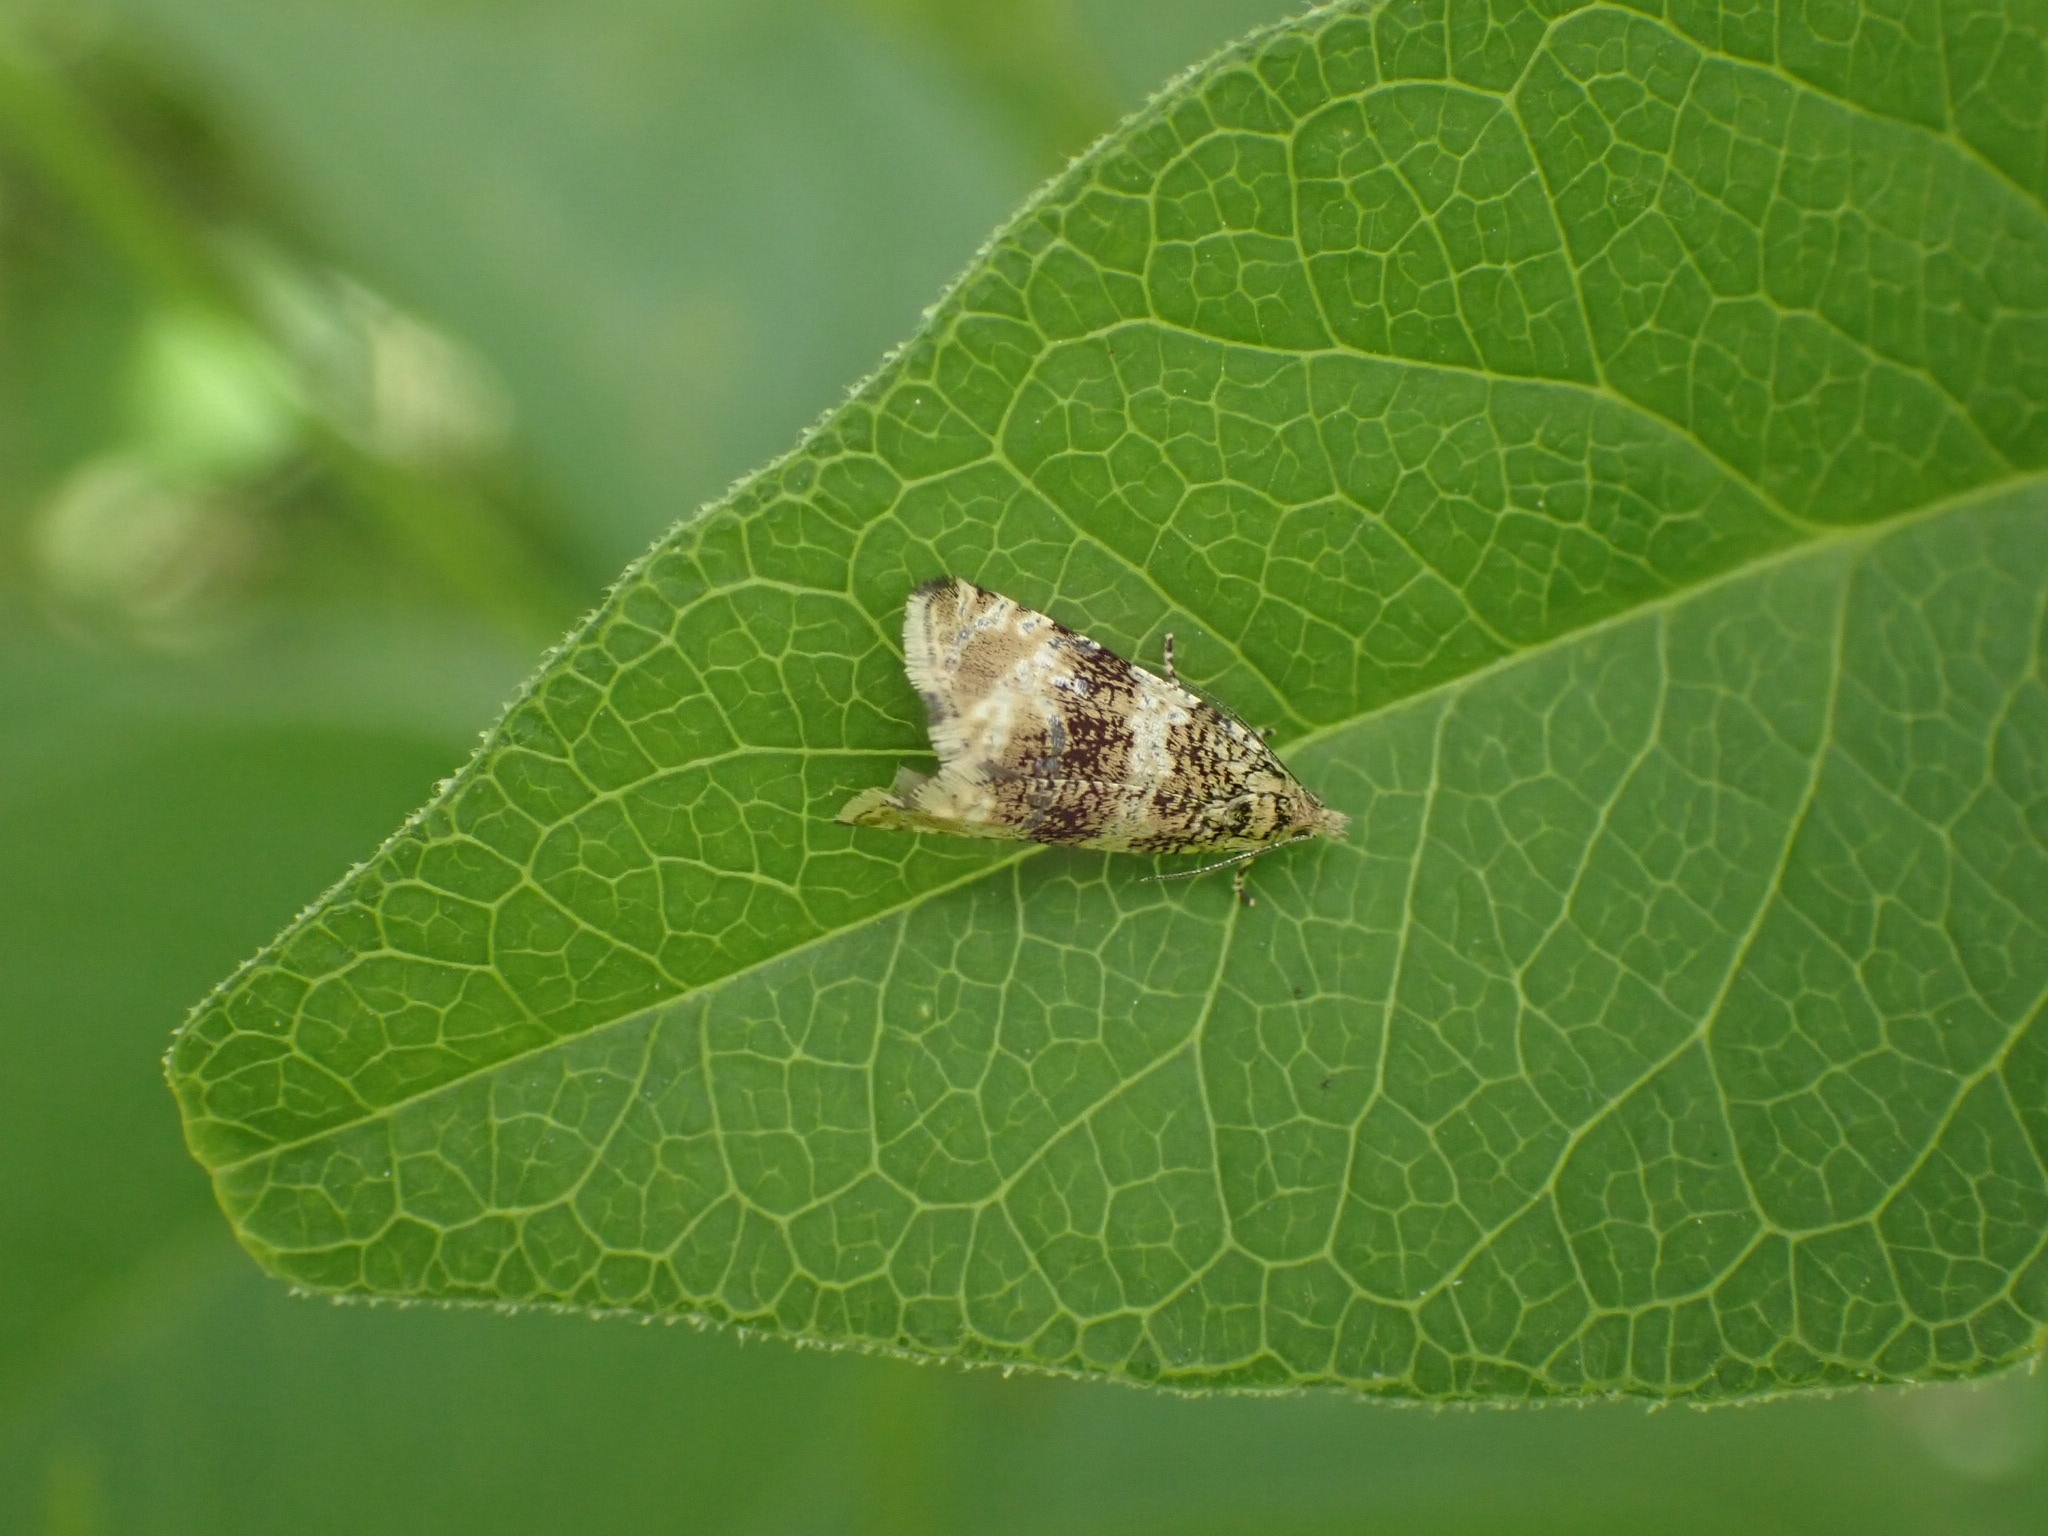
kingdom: Animalia
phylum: Arthropoda
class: Insecta
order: Lepidoptera
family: Tortricidae
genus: Syricoris
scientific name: Syricoris lacunana
